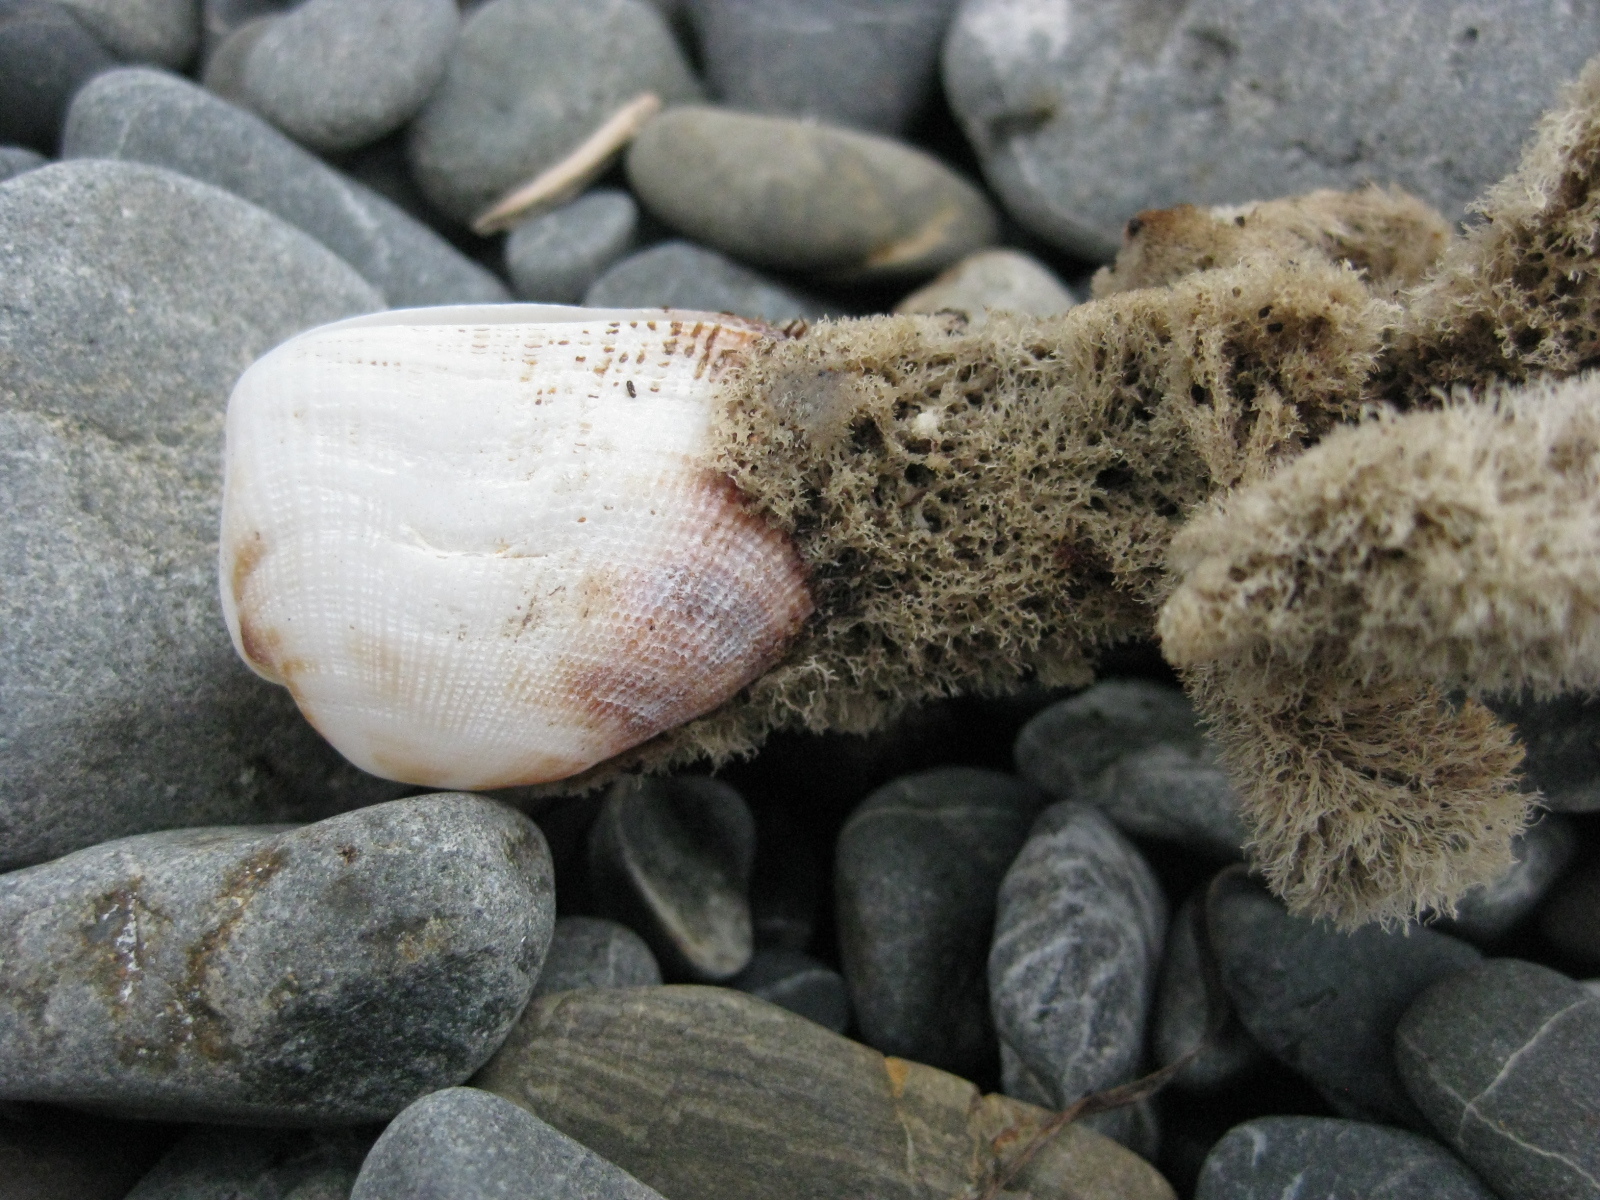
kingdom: Animalia
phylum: Mollusca
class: Bivalvia
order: Arcida
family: Arcidae
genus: Barbatia
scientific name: Barbatia novaezealandiae
